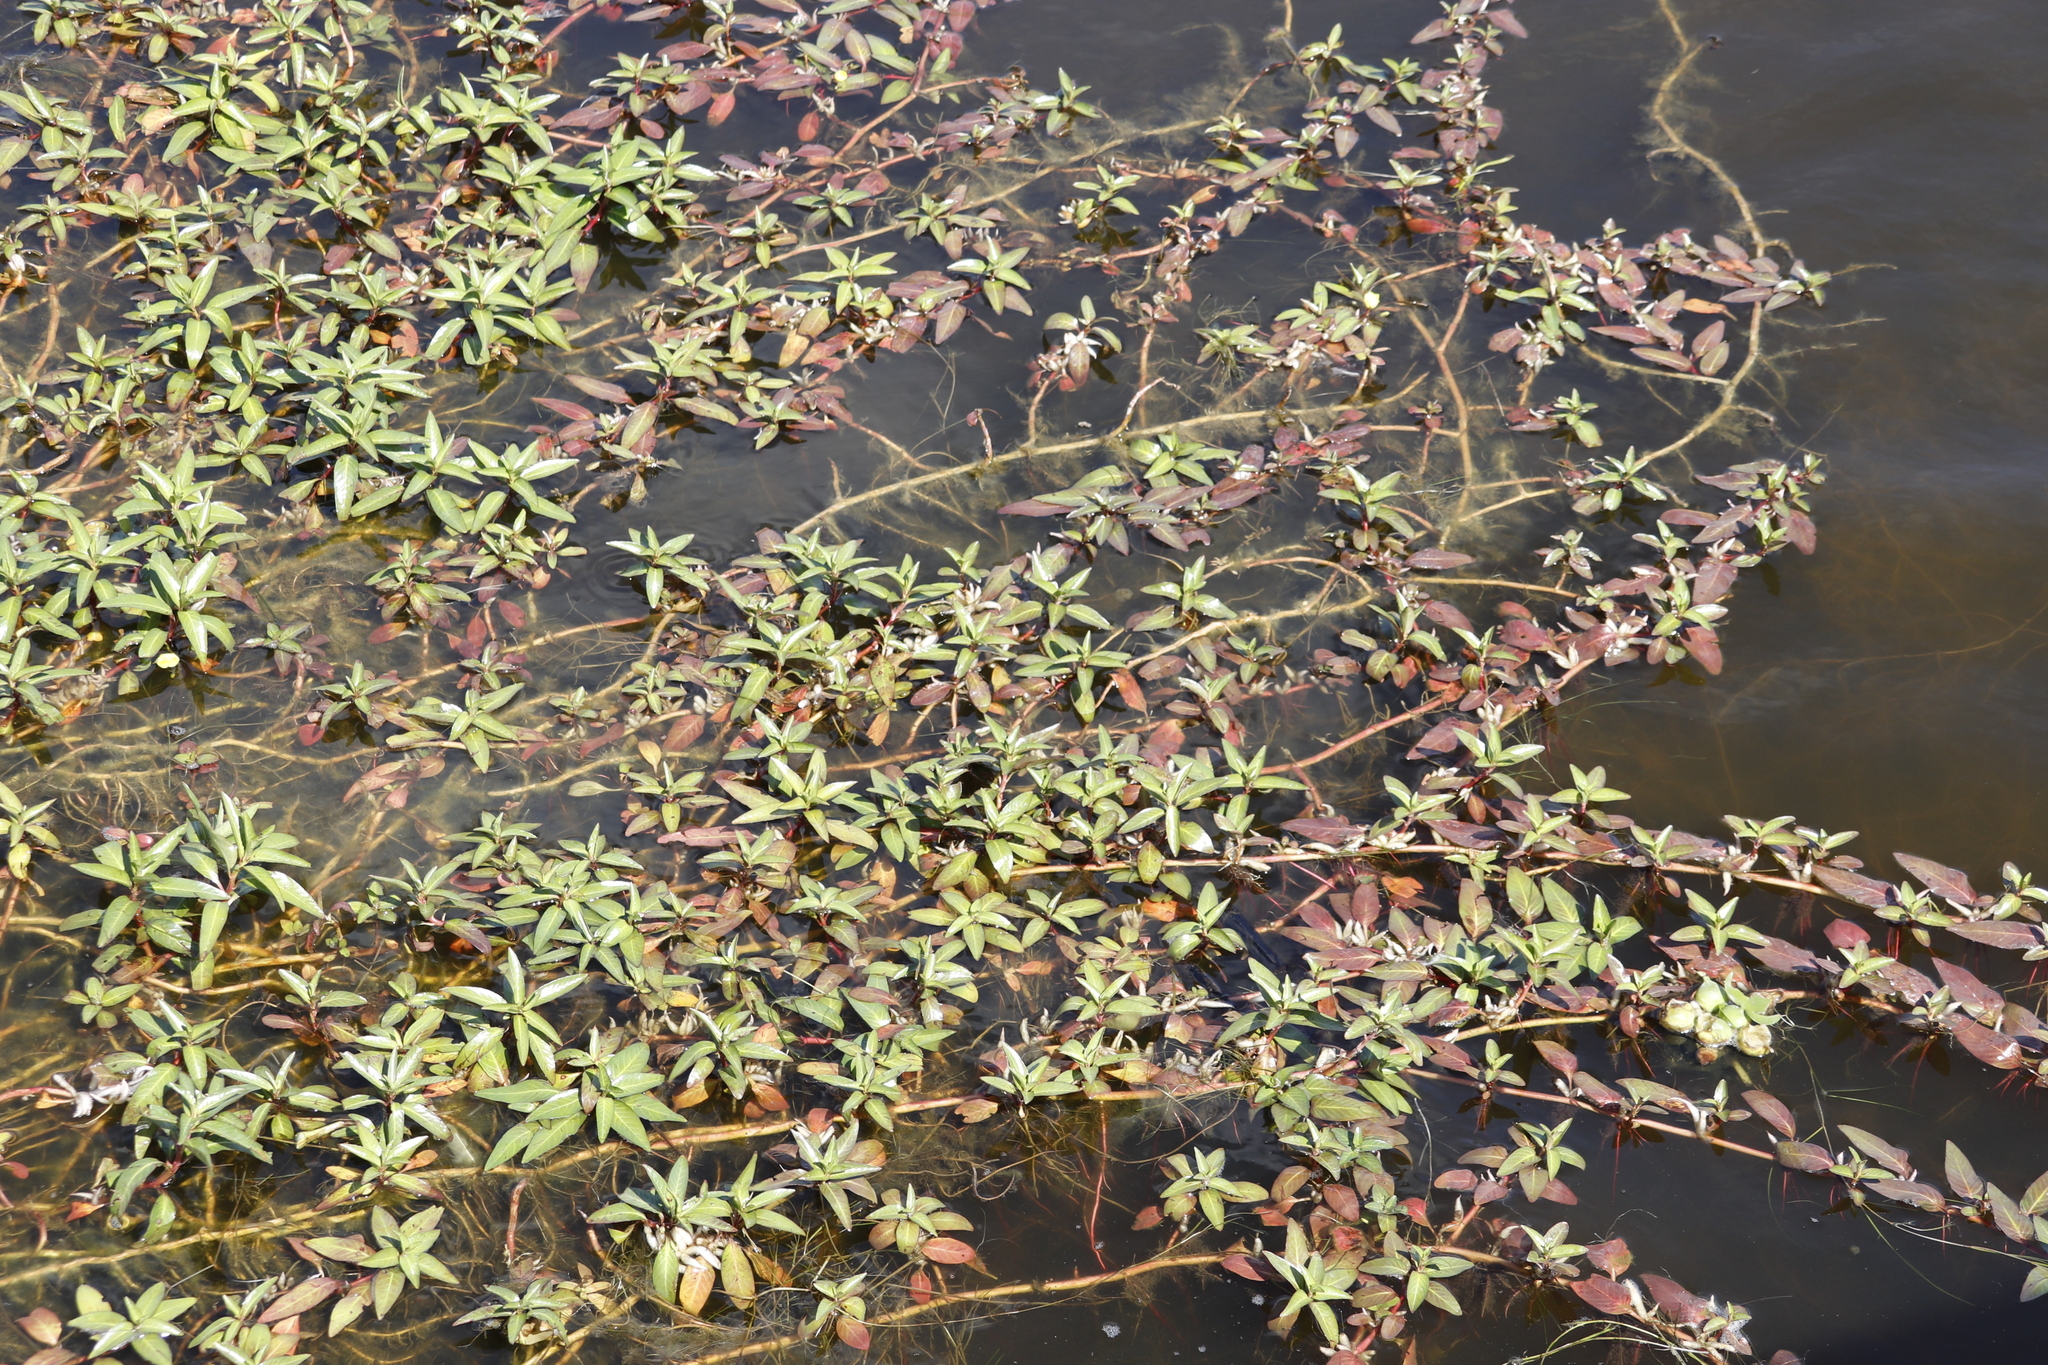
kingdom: Plantae
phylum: Tracheophyta
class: Magnoliopsida
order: Myrtales
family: Onagraceae
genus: Ludwigia
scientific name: Ludwigia adscendens
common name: Creeping water primrose
